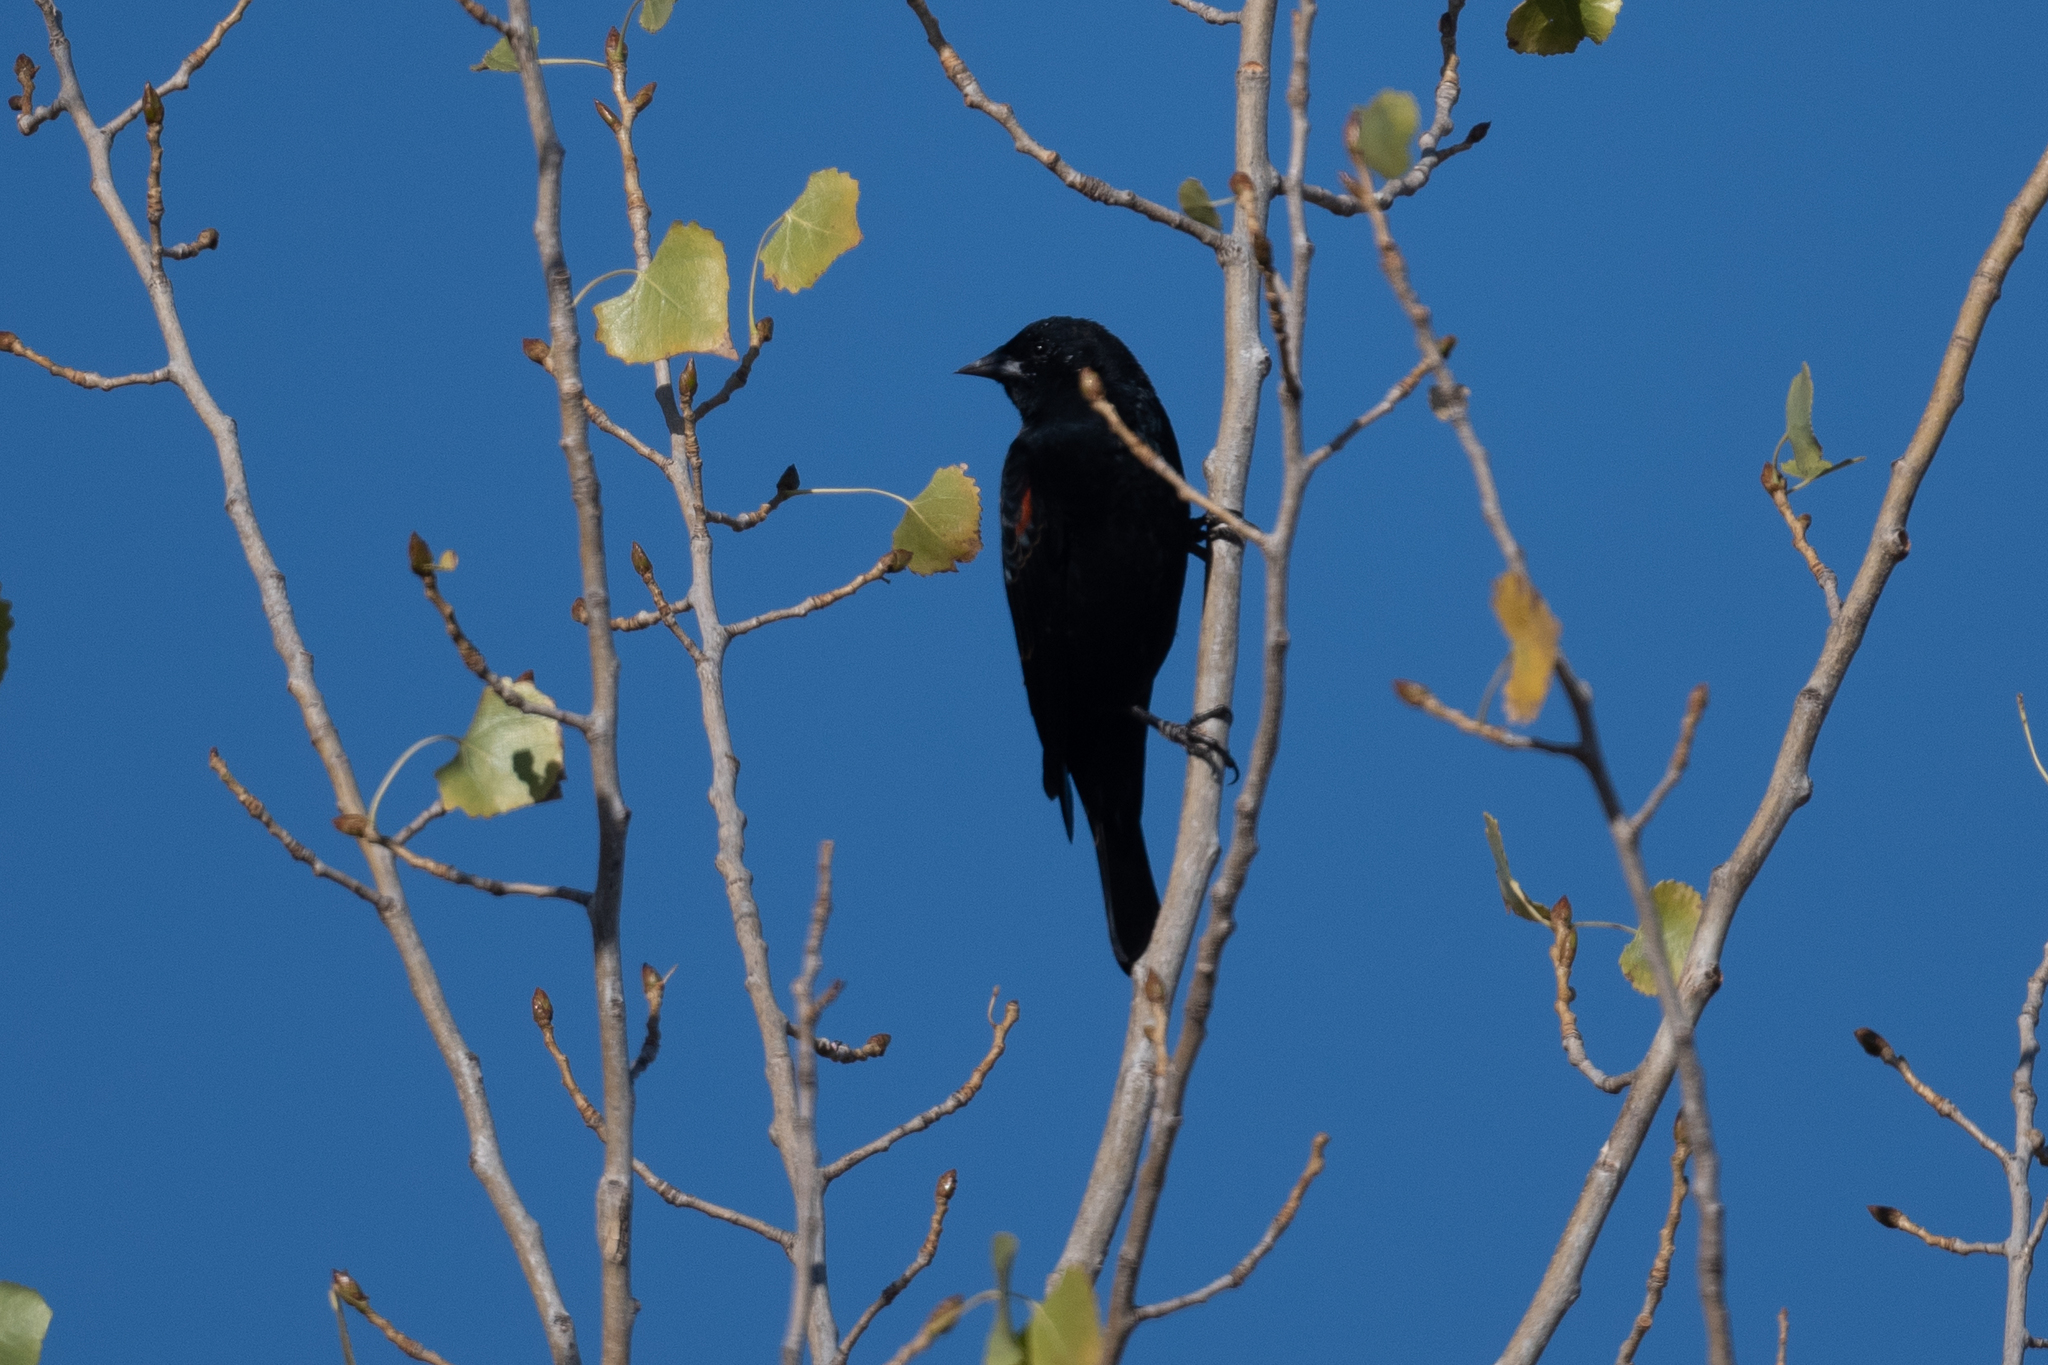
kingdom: Animalia
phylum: Chordata
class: Aves
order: Passeriformes
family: Icteridae
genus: Agelaius
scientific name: Agelaius phoeniceus
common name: Red-winged blackbird
